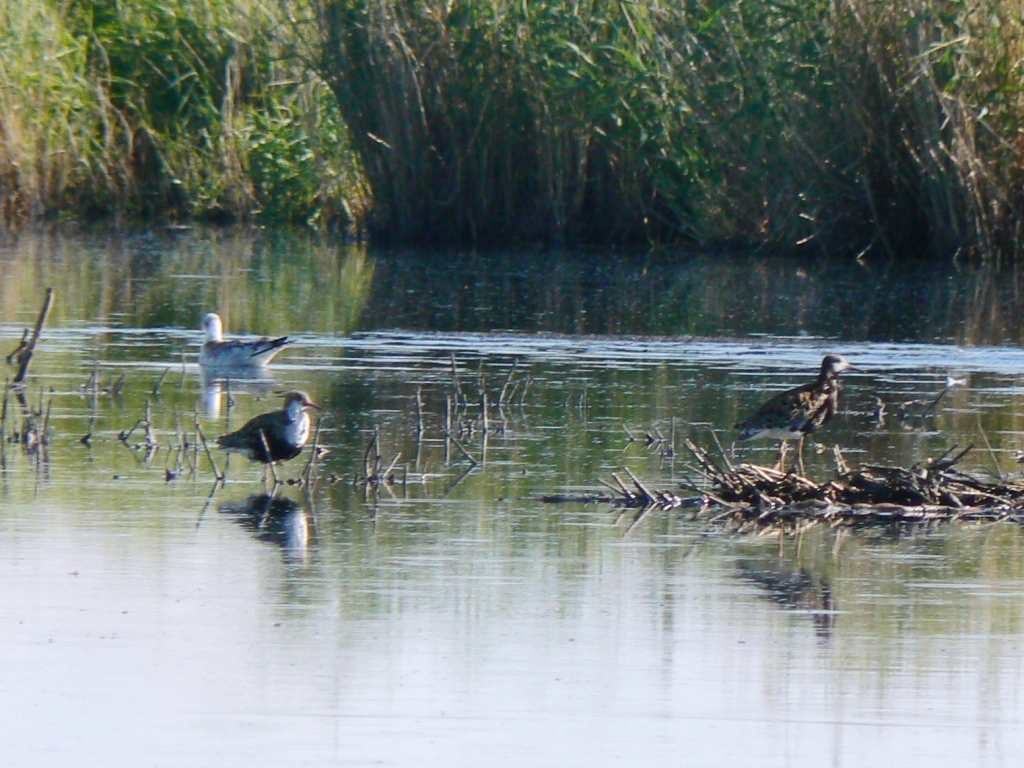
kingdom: Animalia
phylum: Chordata
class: Aves
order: Charadriiformes
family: Scolopacidae
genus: Calidris
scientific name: Calidris pugnax
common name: Ruff
